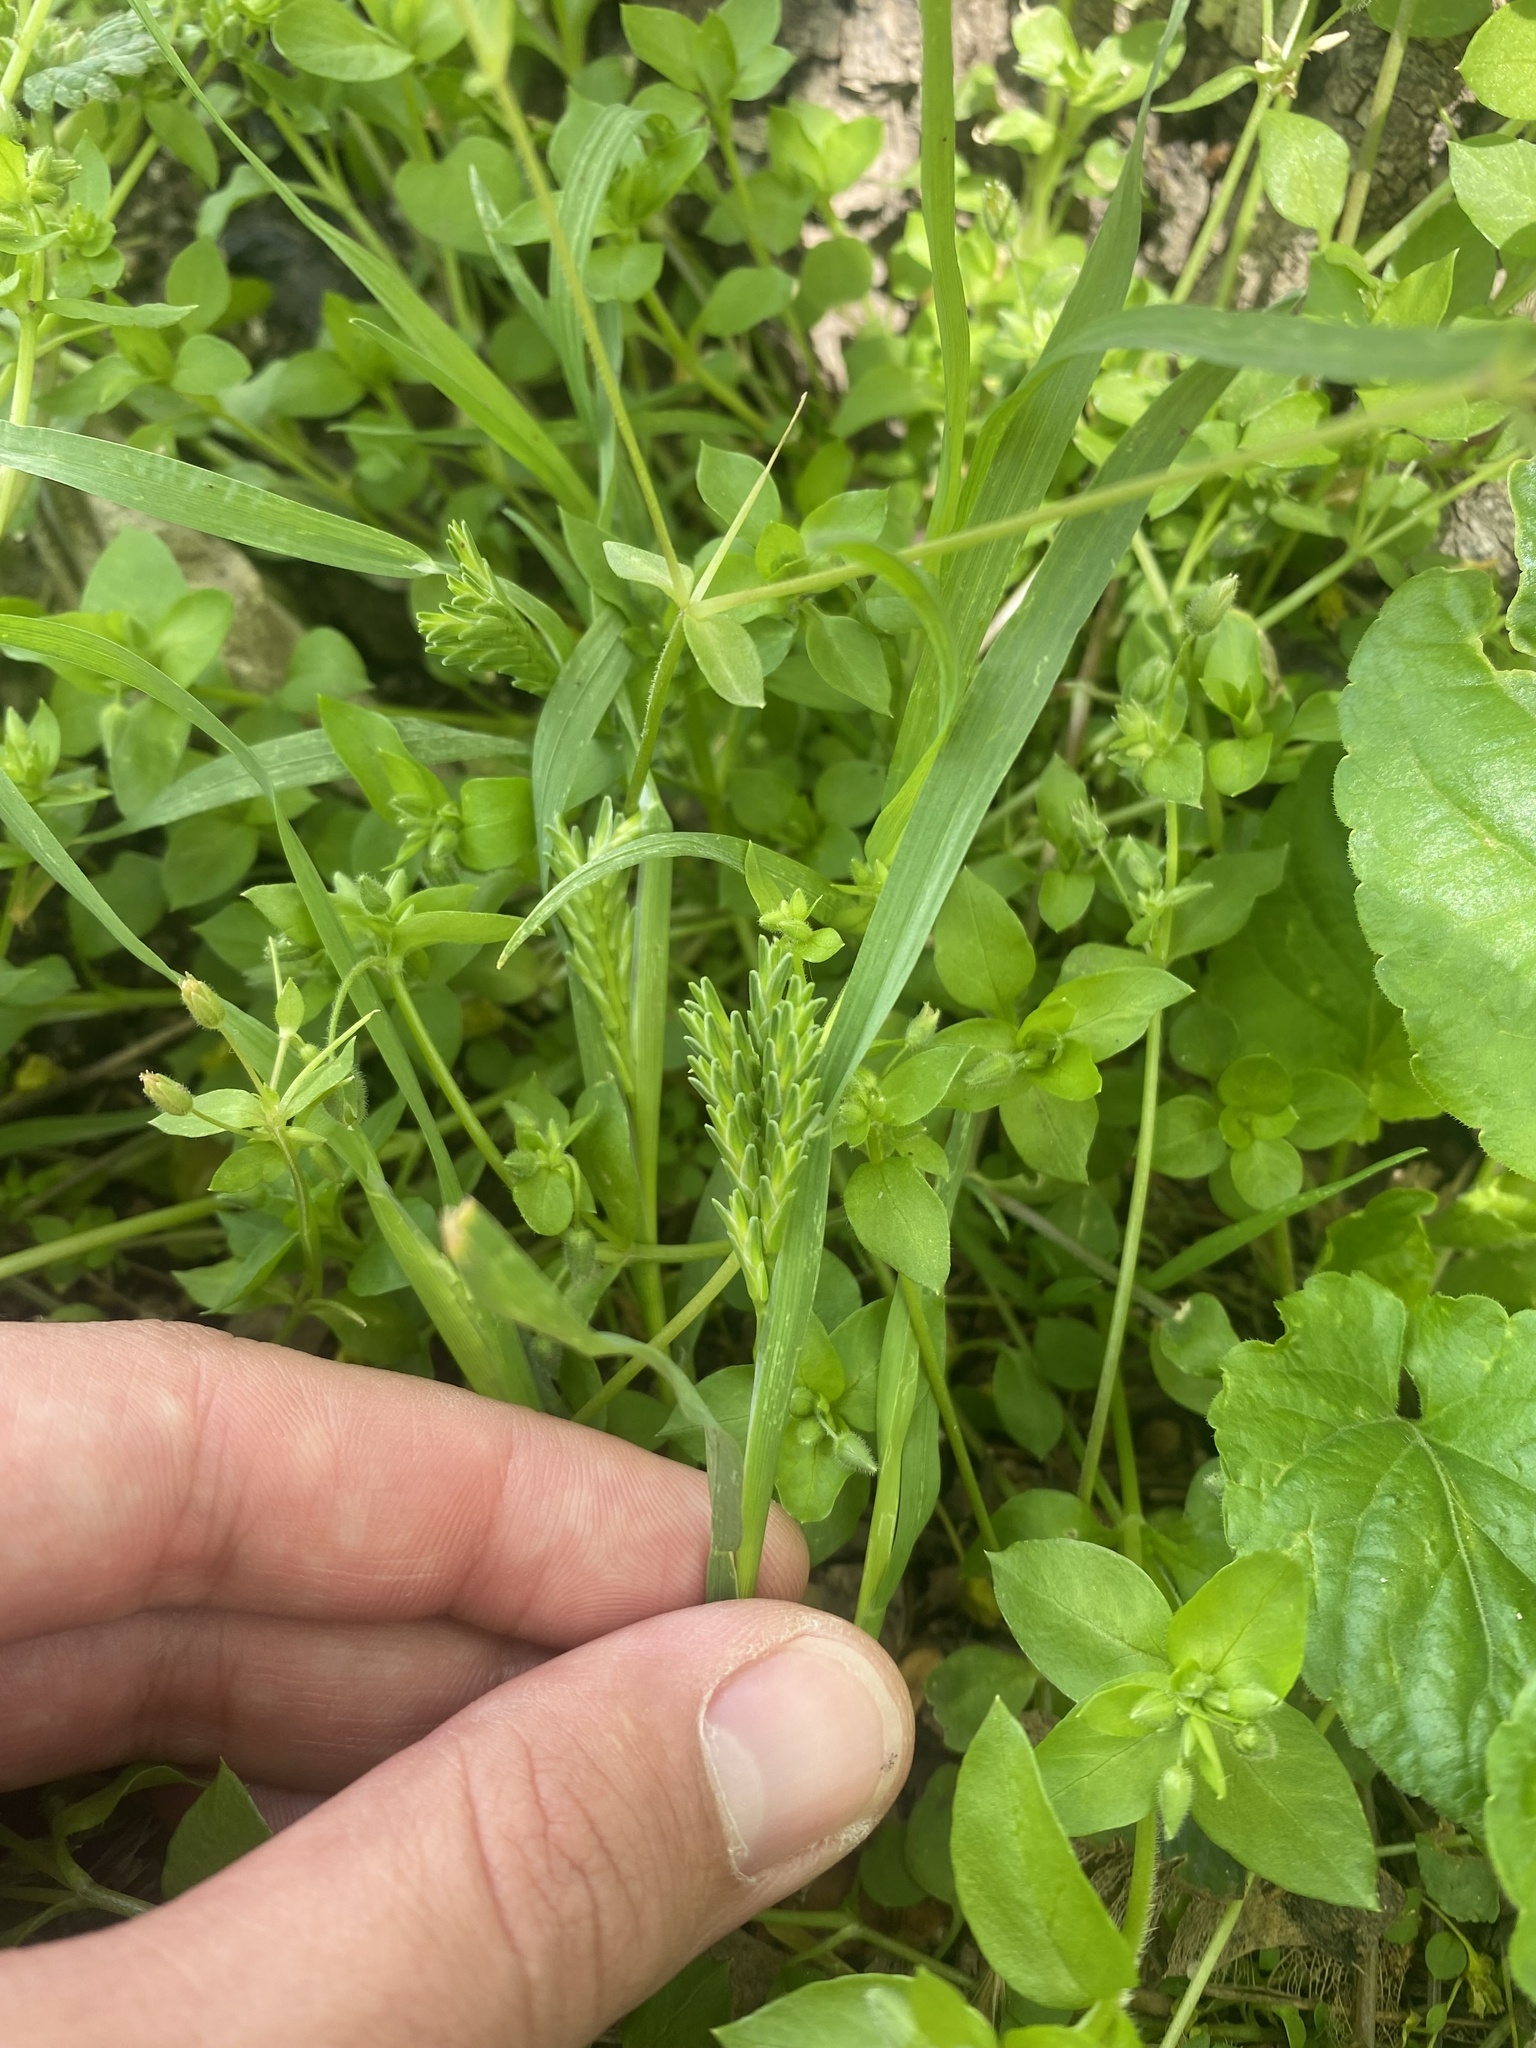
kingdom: Plantae
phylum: Tracheophyta
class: Liliopsida
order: Poales
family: Poaceae
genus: Sclerochloa
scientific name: Sclerochloa dura
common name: Common hardgrass
